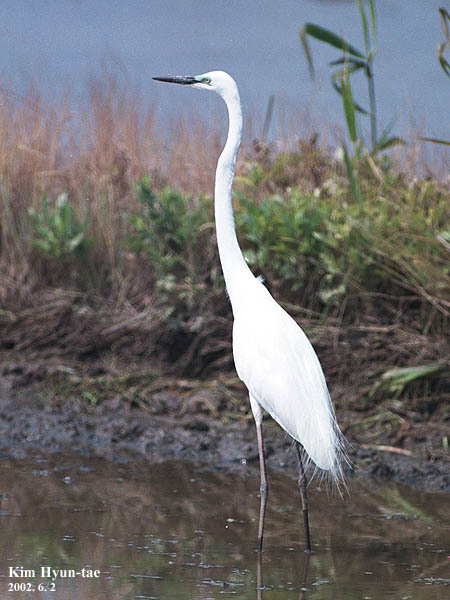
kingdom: Animalia
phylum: Chordata
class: Aves
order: Pelecaniformes
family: Ardeidae
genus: Ardea
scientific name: Ardea modesta
